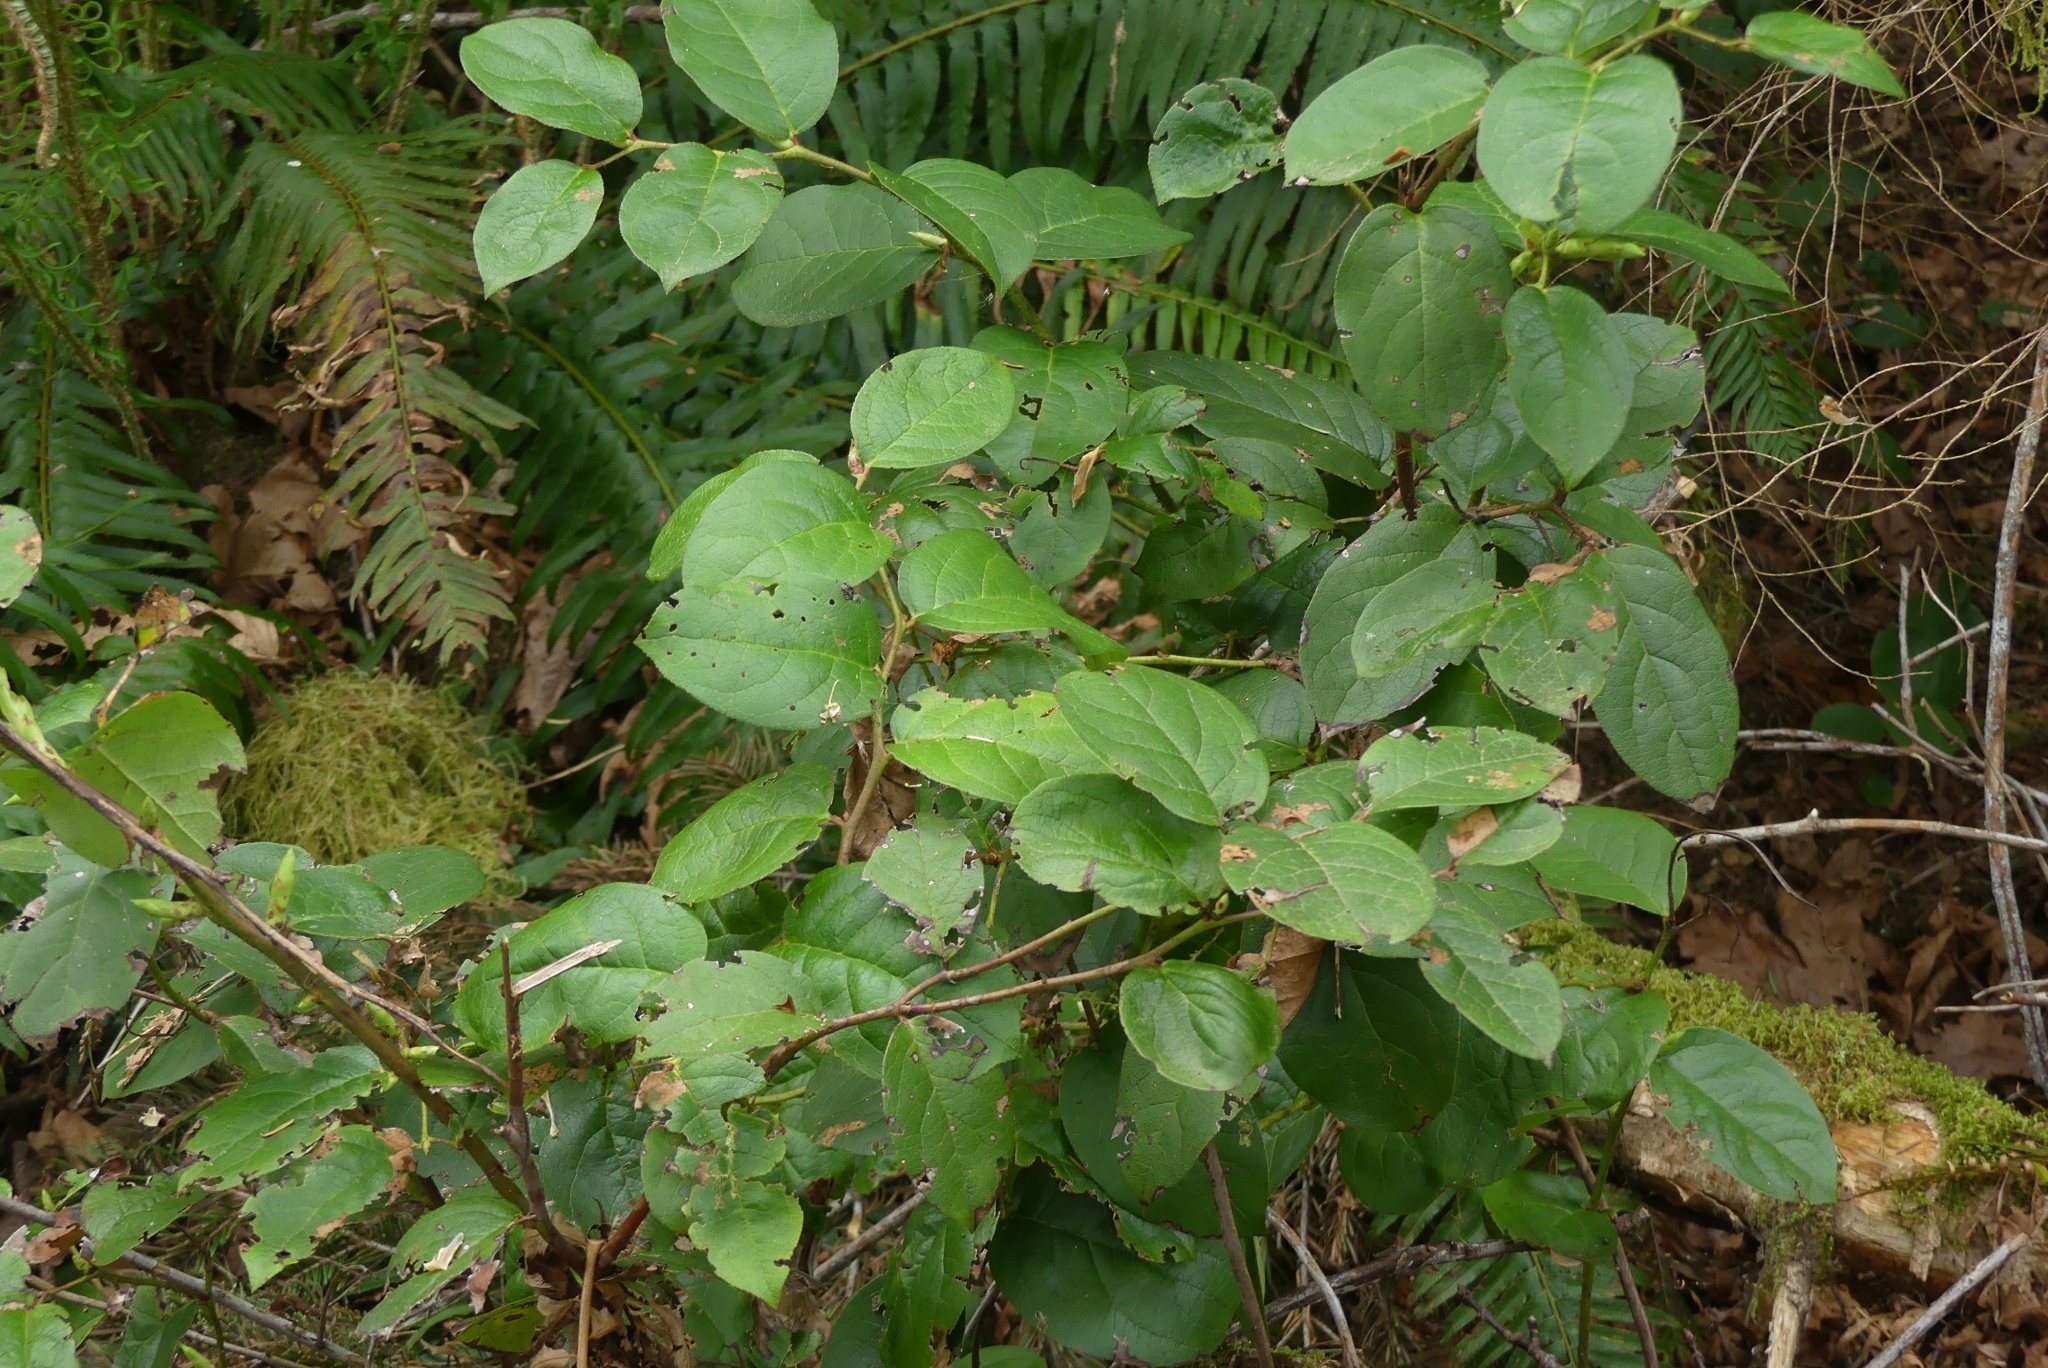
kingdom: Plantae
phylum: Tracheophyta
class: Magnoliopsida
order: Ericales
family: Ericaceae
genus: Gaultheria
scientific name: Gaultheria shallon
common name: Shallon
